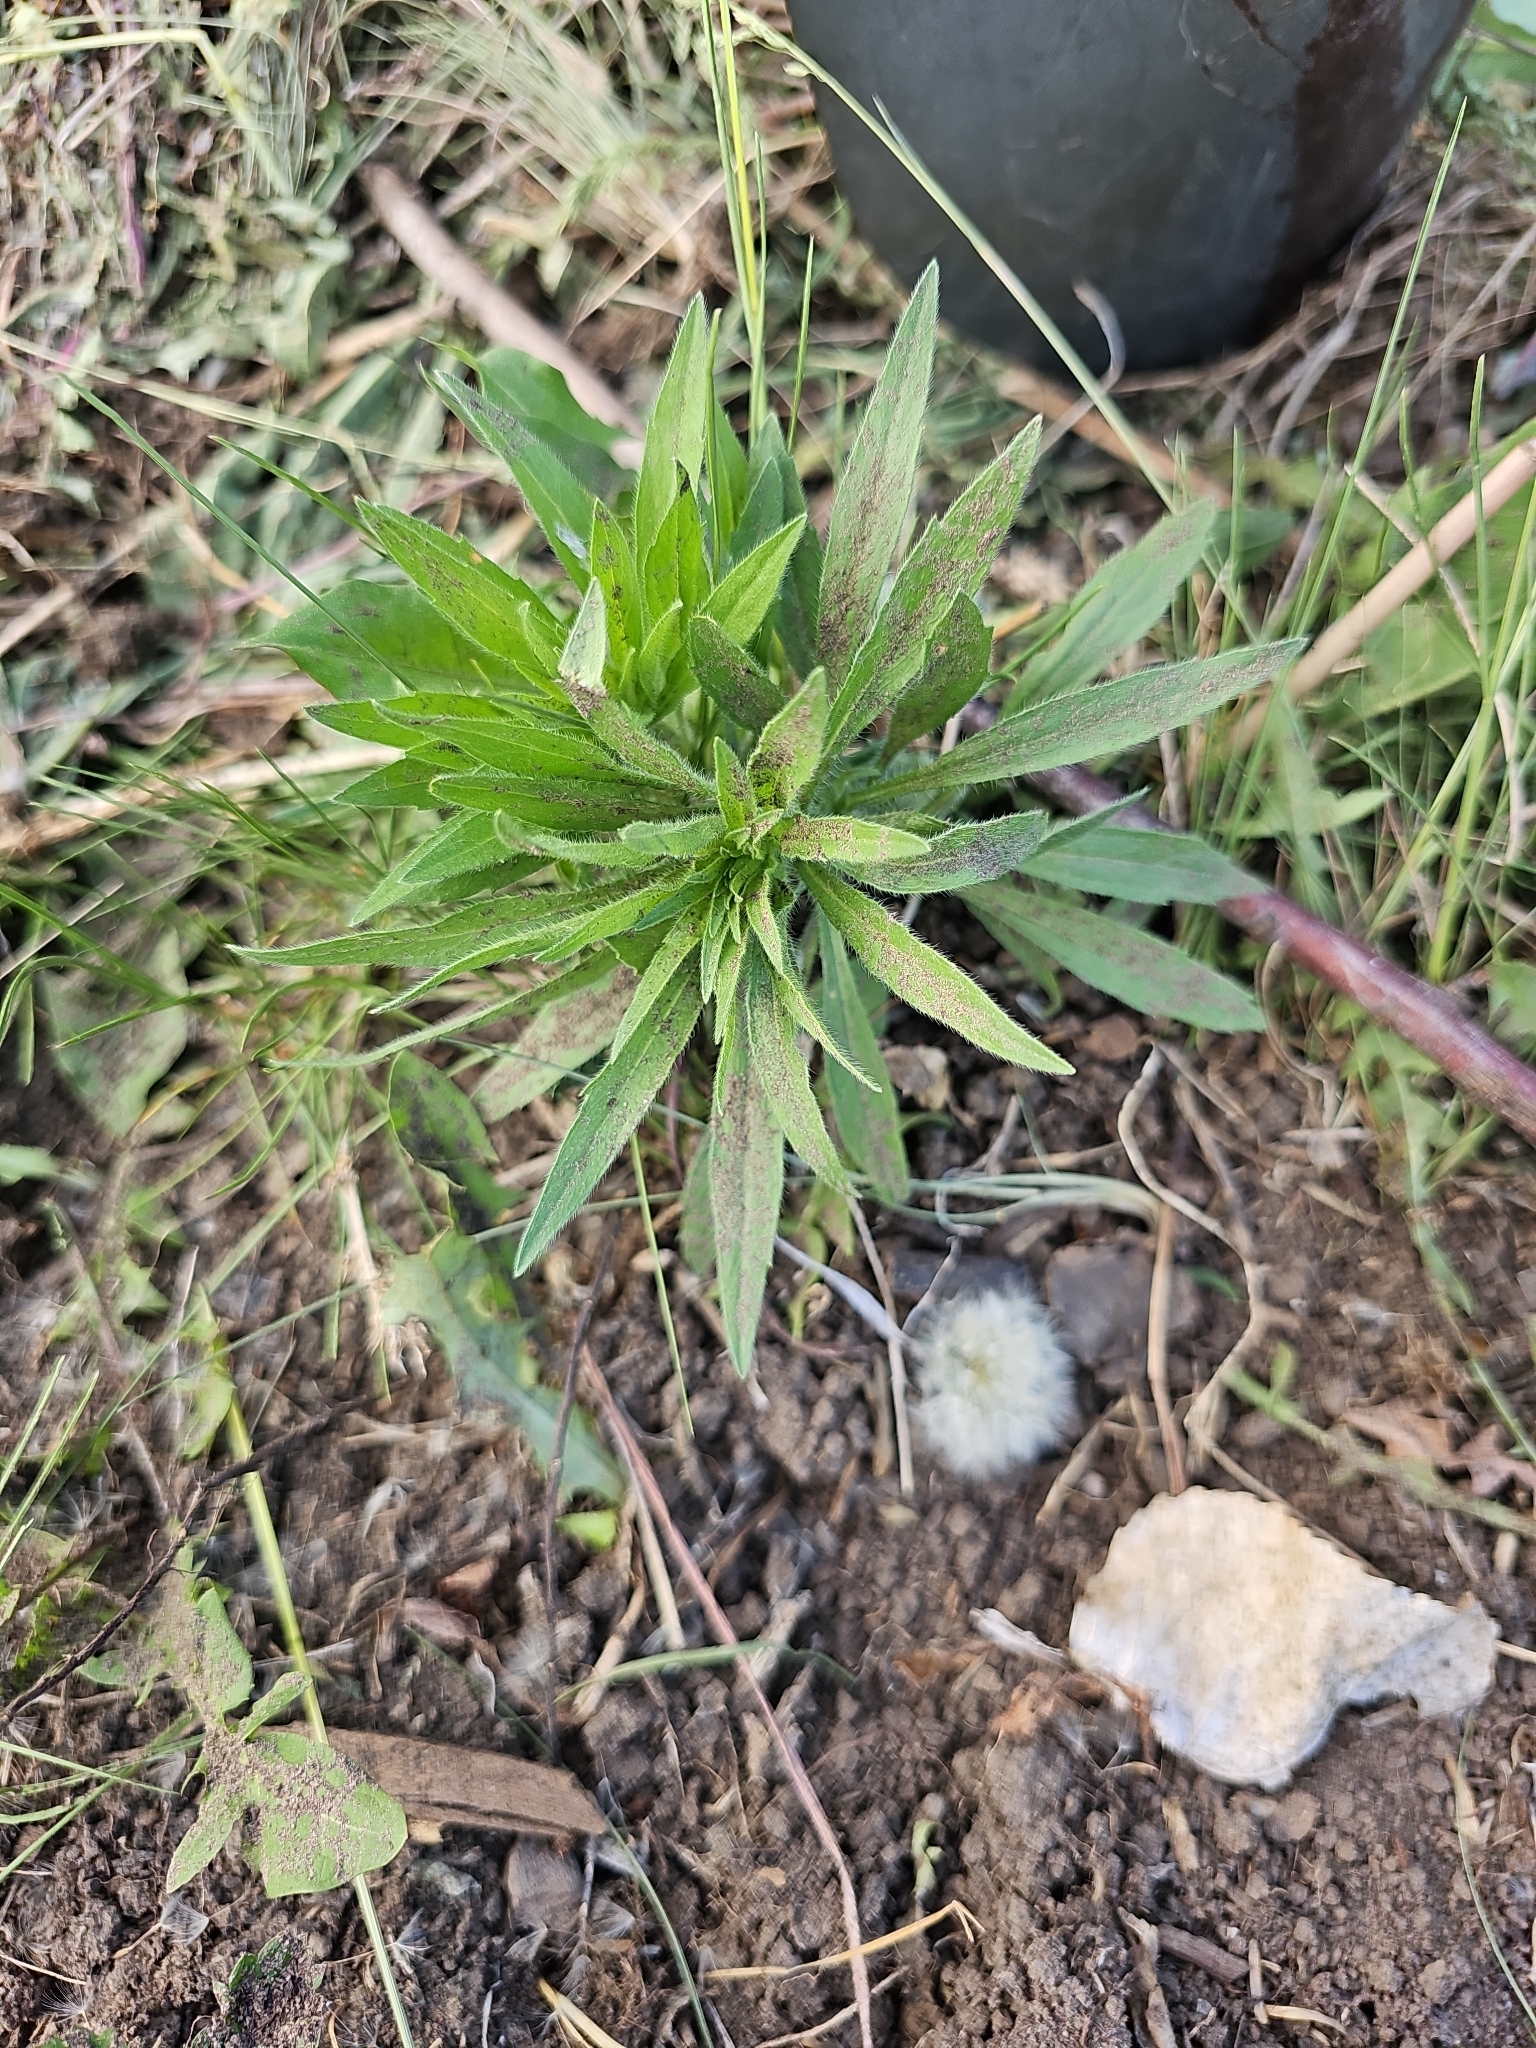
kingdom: Plantae
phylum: Tracheophyta
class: Magnoliopsida
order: Asterales
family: Asteraceae
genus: Erigeron
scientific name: Erigeron canadensis
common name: Canadian fleabane
